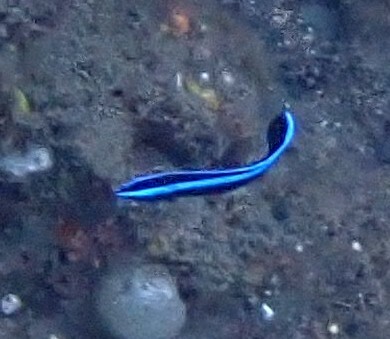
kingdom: Animalia
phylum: Chordata
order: Perciformes
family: Labridae
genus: Labroides
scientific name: Labroides dimidiatus
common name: Blue diesel wrasse
